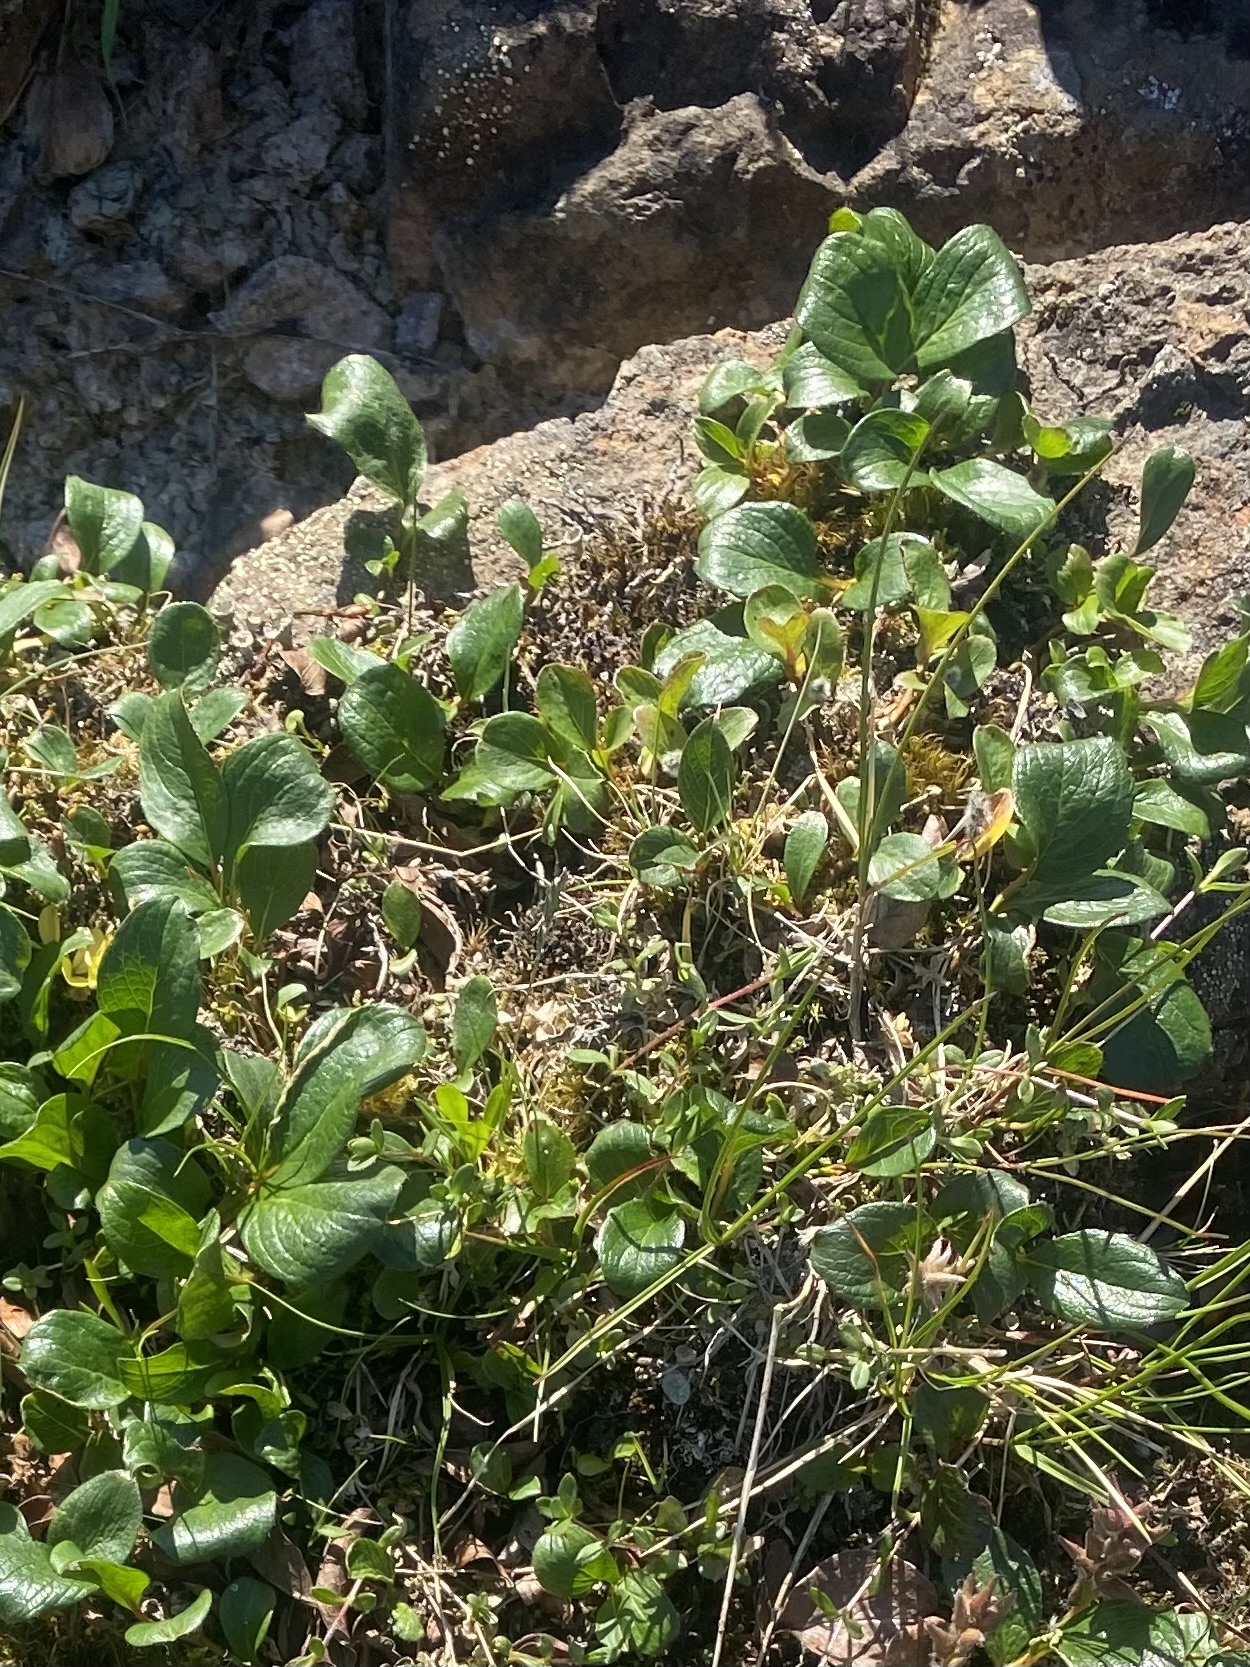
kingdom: Plantae
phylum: Tracheophyta
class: Magnoliopsida
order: Malpighiales
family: Salicaceae
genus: Salix
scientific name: Salix polaris
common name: Polar willow
